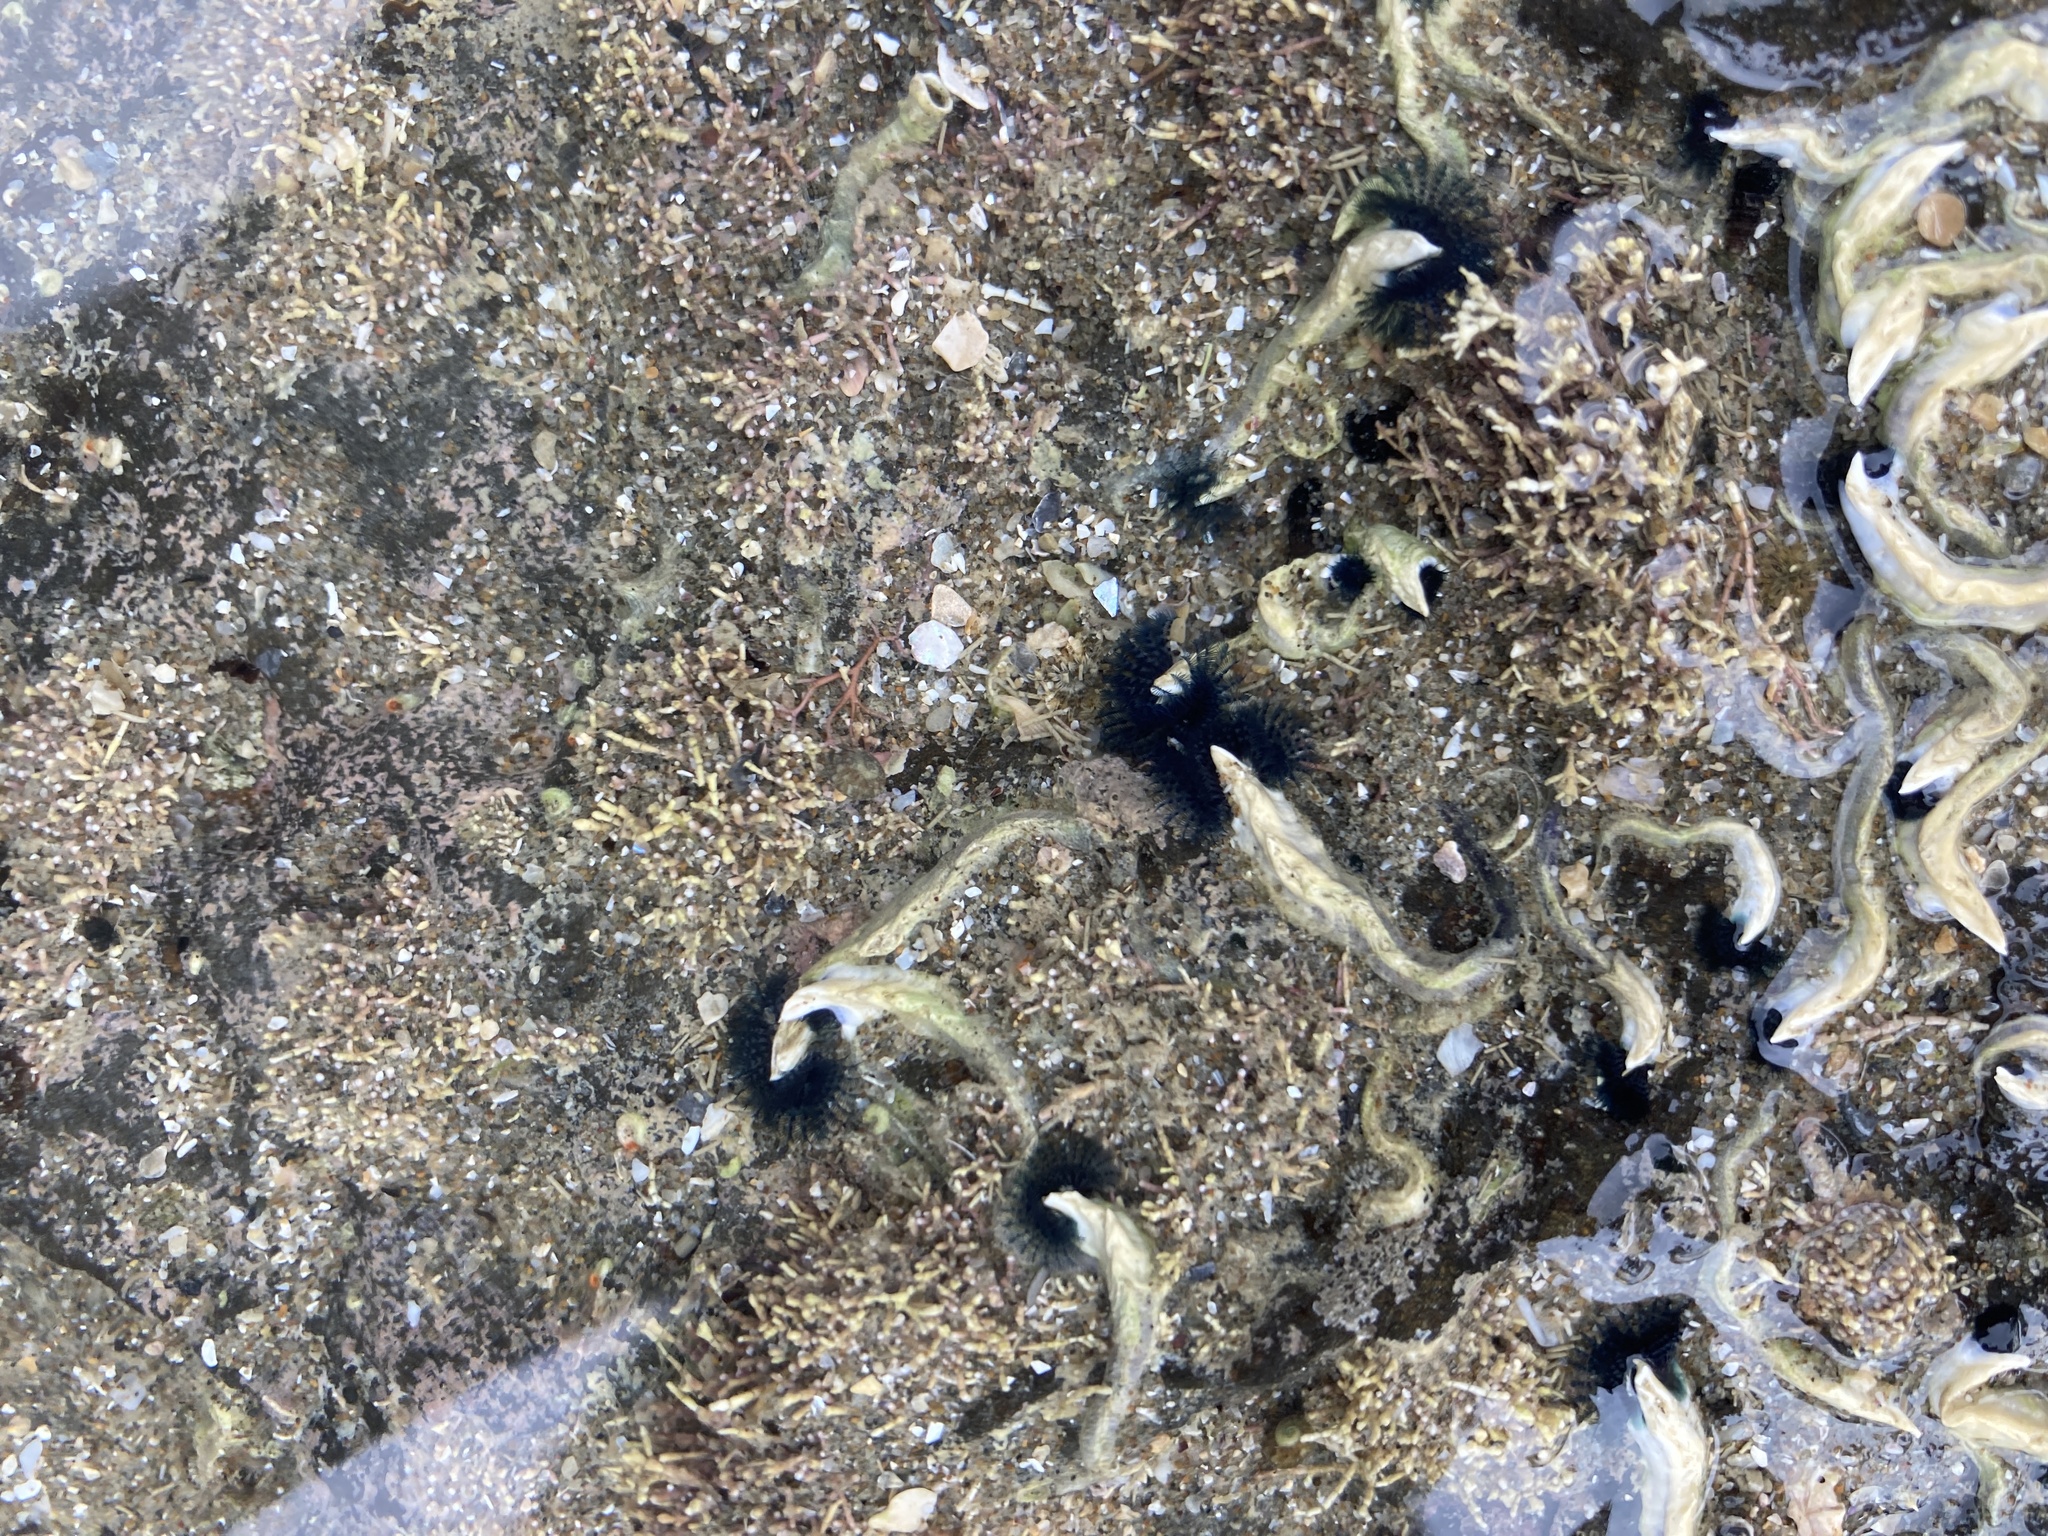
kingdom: Animalia
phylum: Annelida
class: Polychaeta
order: Sabellida
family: Serpulidae
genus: Spirobranchus
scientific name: Spirobranchus cariniferus
